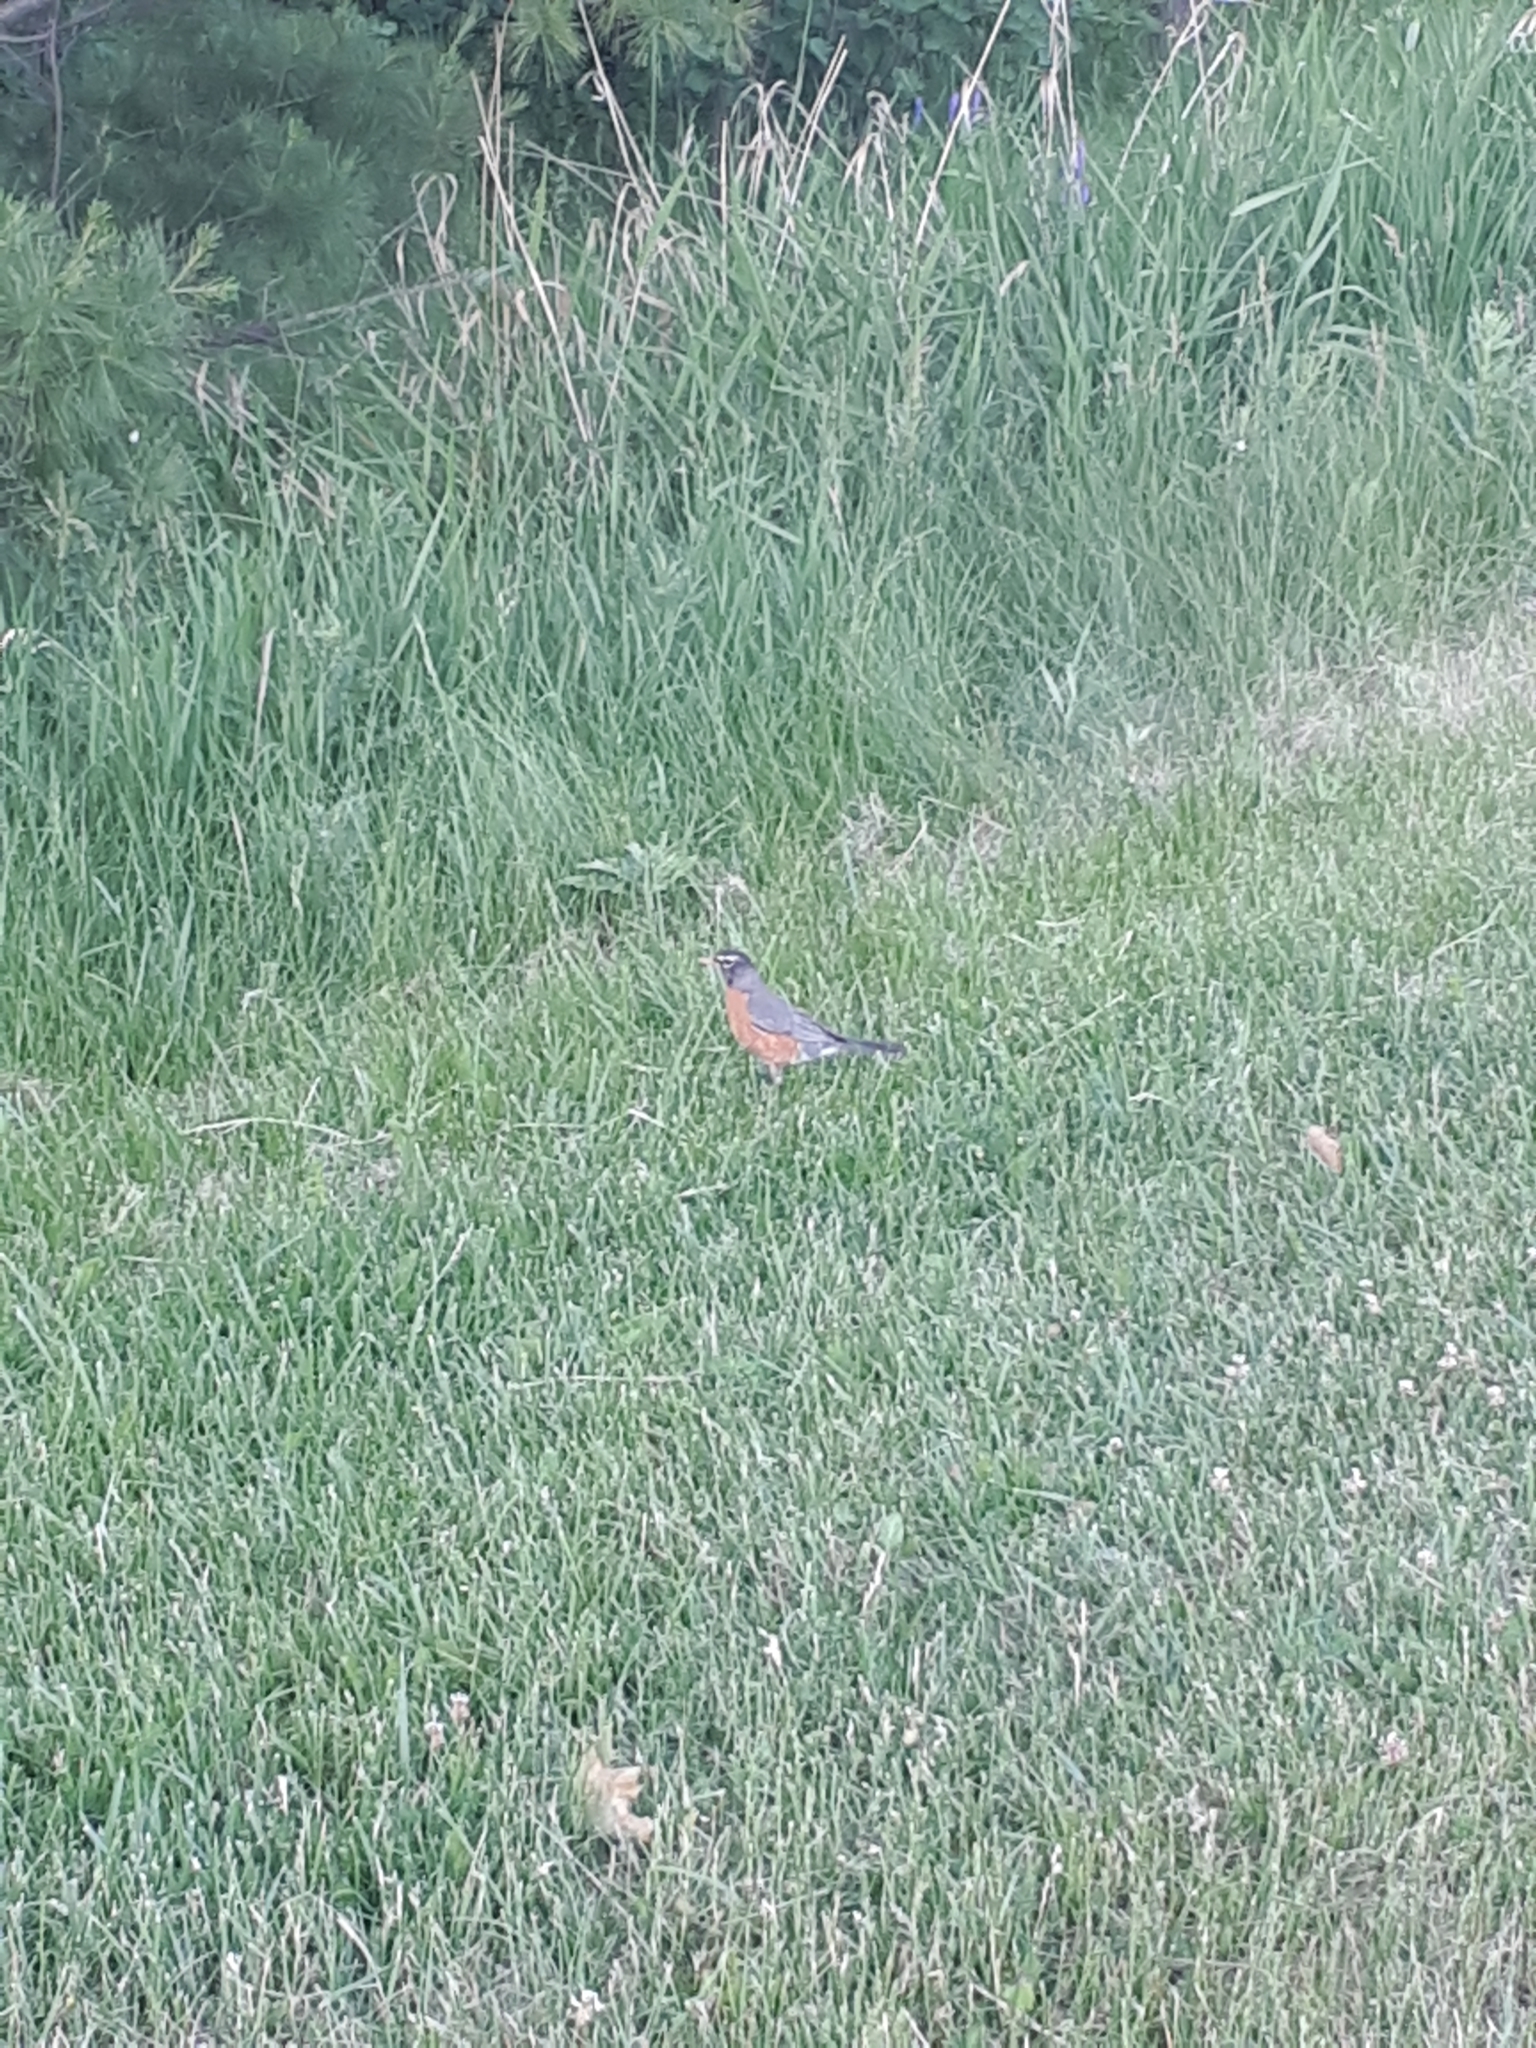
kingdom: Animalia
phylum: Chordata
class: Aves
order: Passeriformes
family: Turdidae
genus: Turdus
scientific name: Turdus migratorius
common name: American robin
